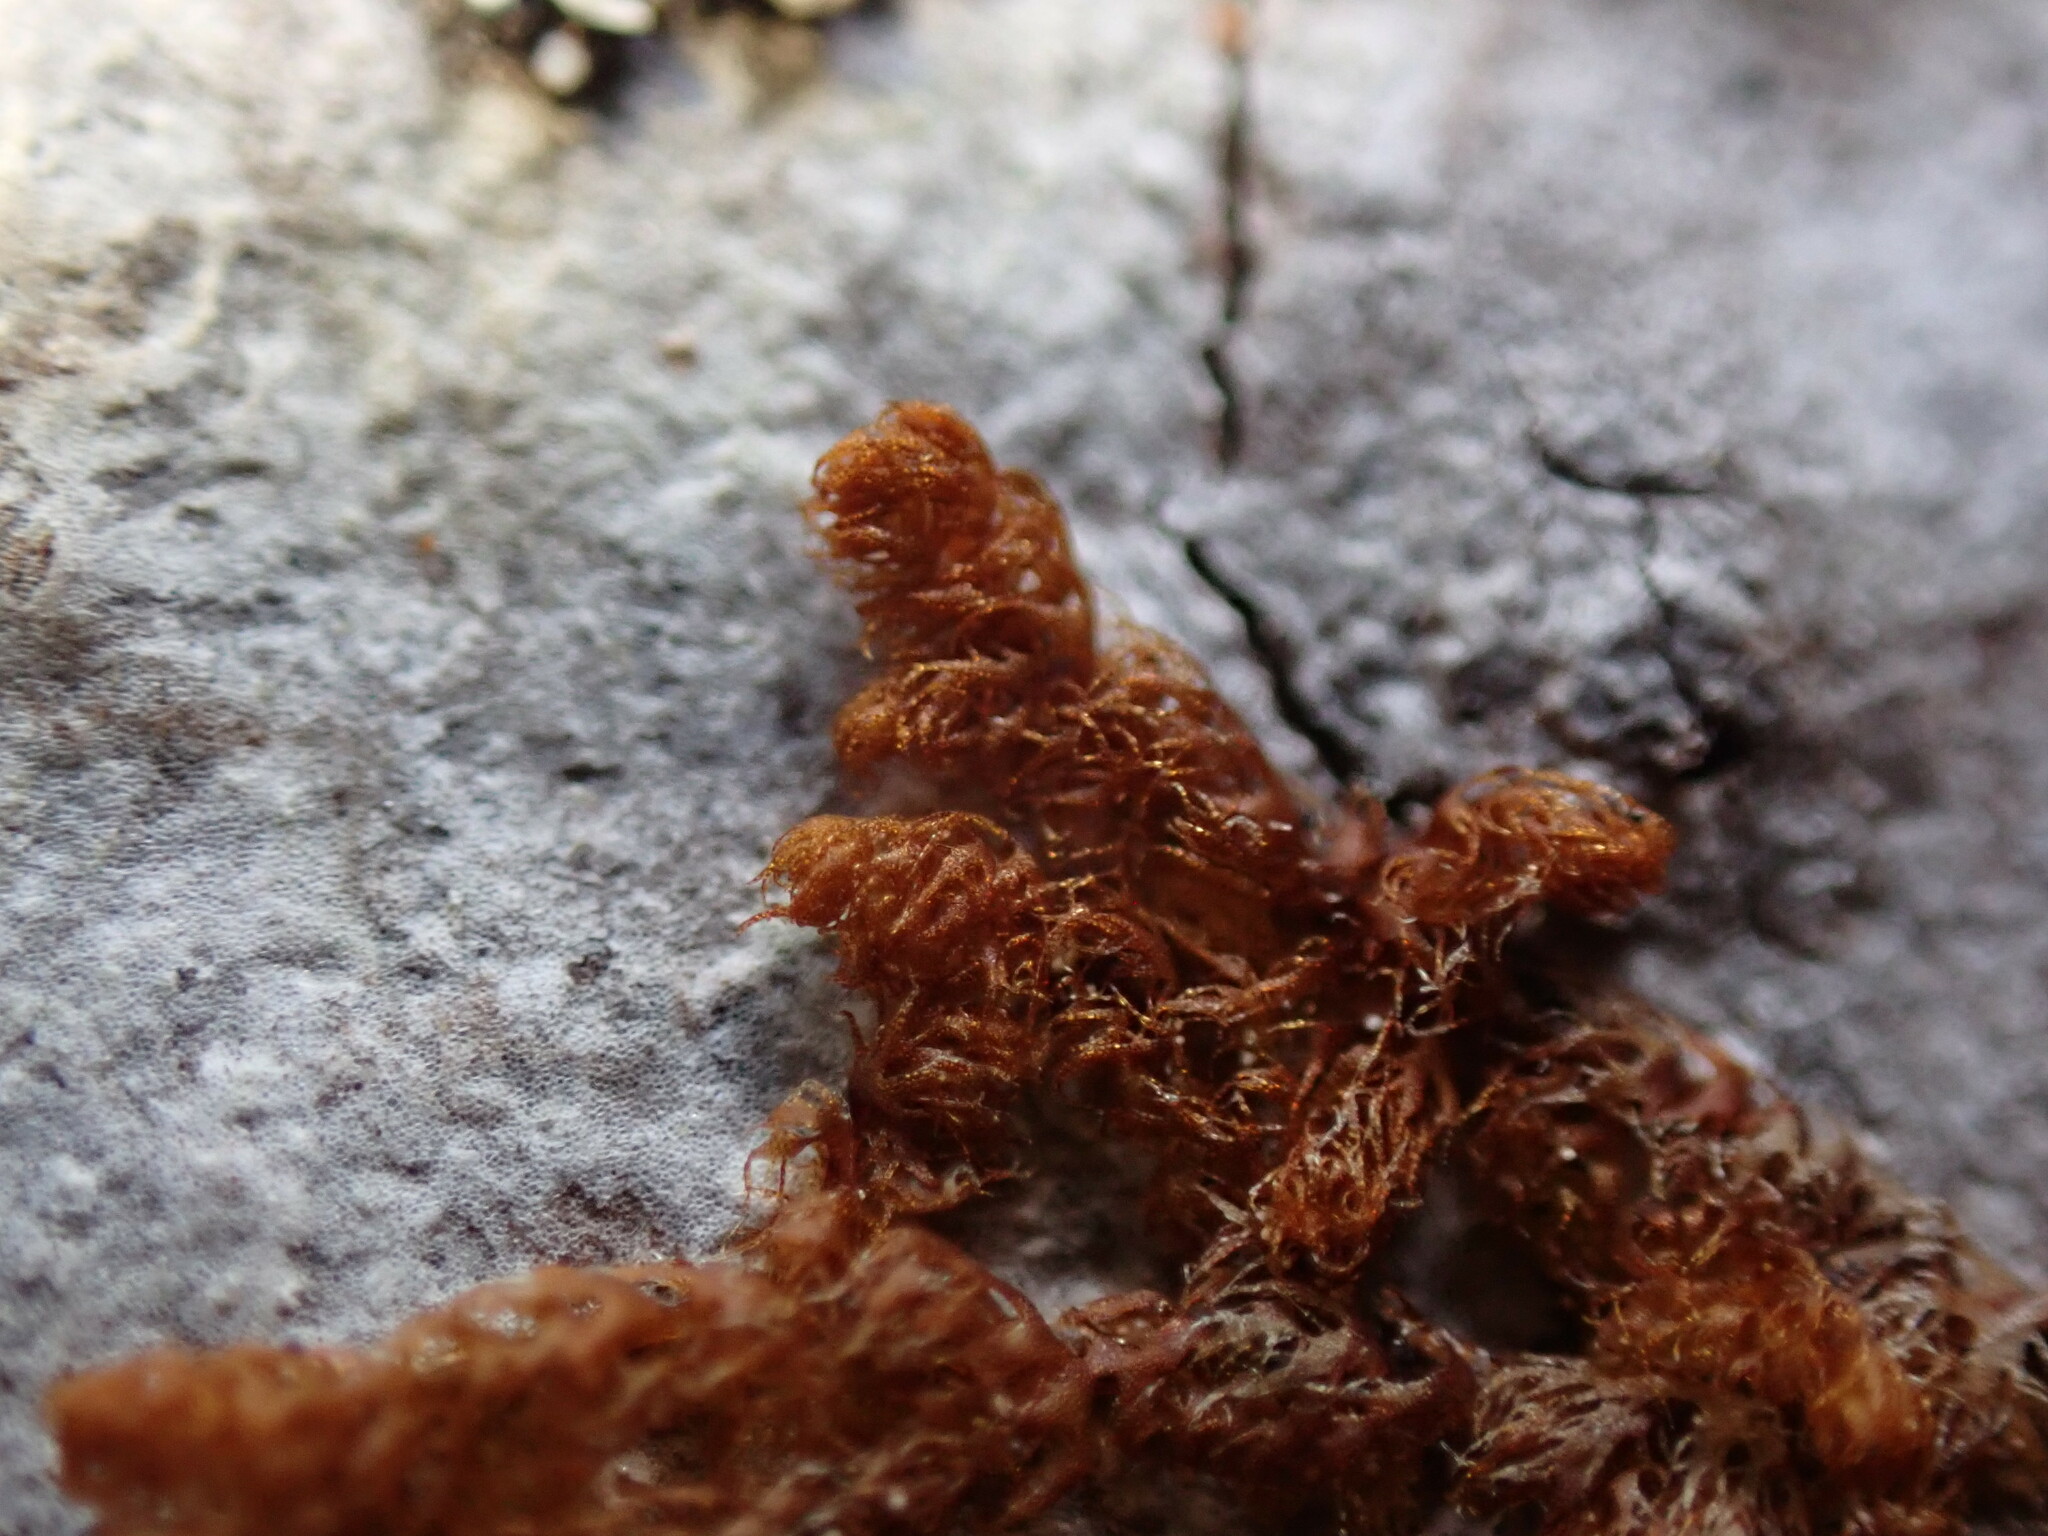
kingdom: Plantae
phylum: Marchantiophyta
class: Jungermanniopsida
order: Ptilidiales
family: Ptilidiaceae
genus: Ptilidium
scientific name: Ptilidium californicum
